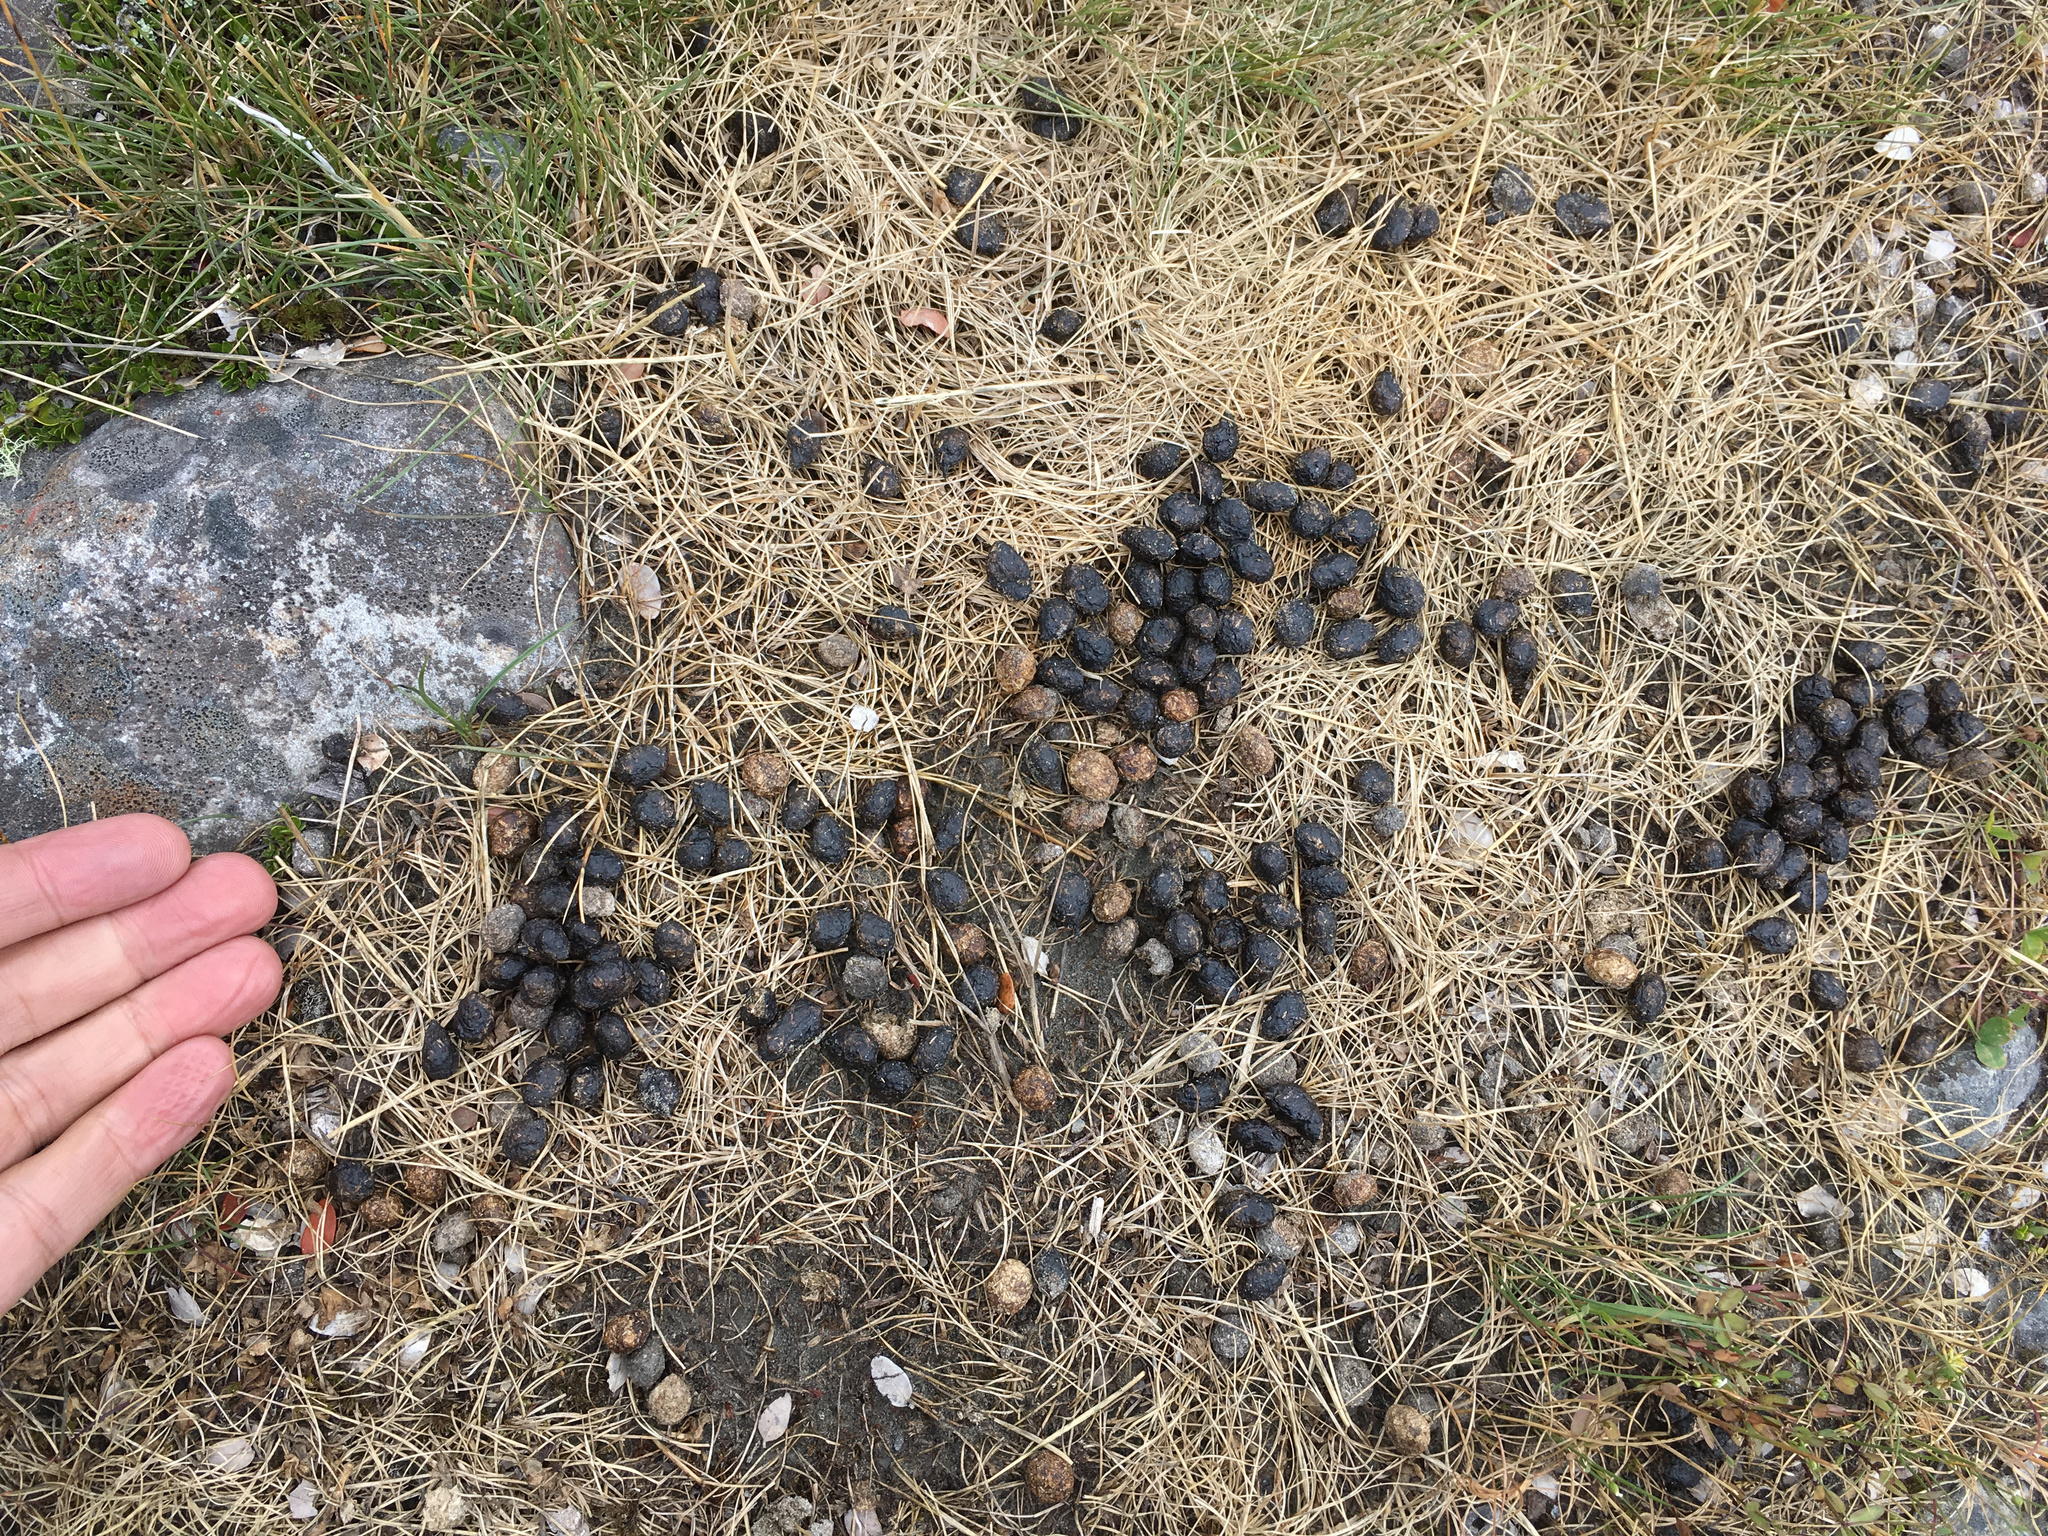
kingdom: Animalia
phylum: Chordata
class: Mammalia
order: Lagomorpha
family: Leporidae
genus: Oryctolagus
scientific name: Oryctolagus cuniculus
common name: European rabbit
